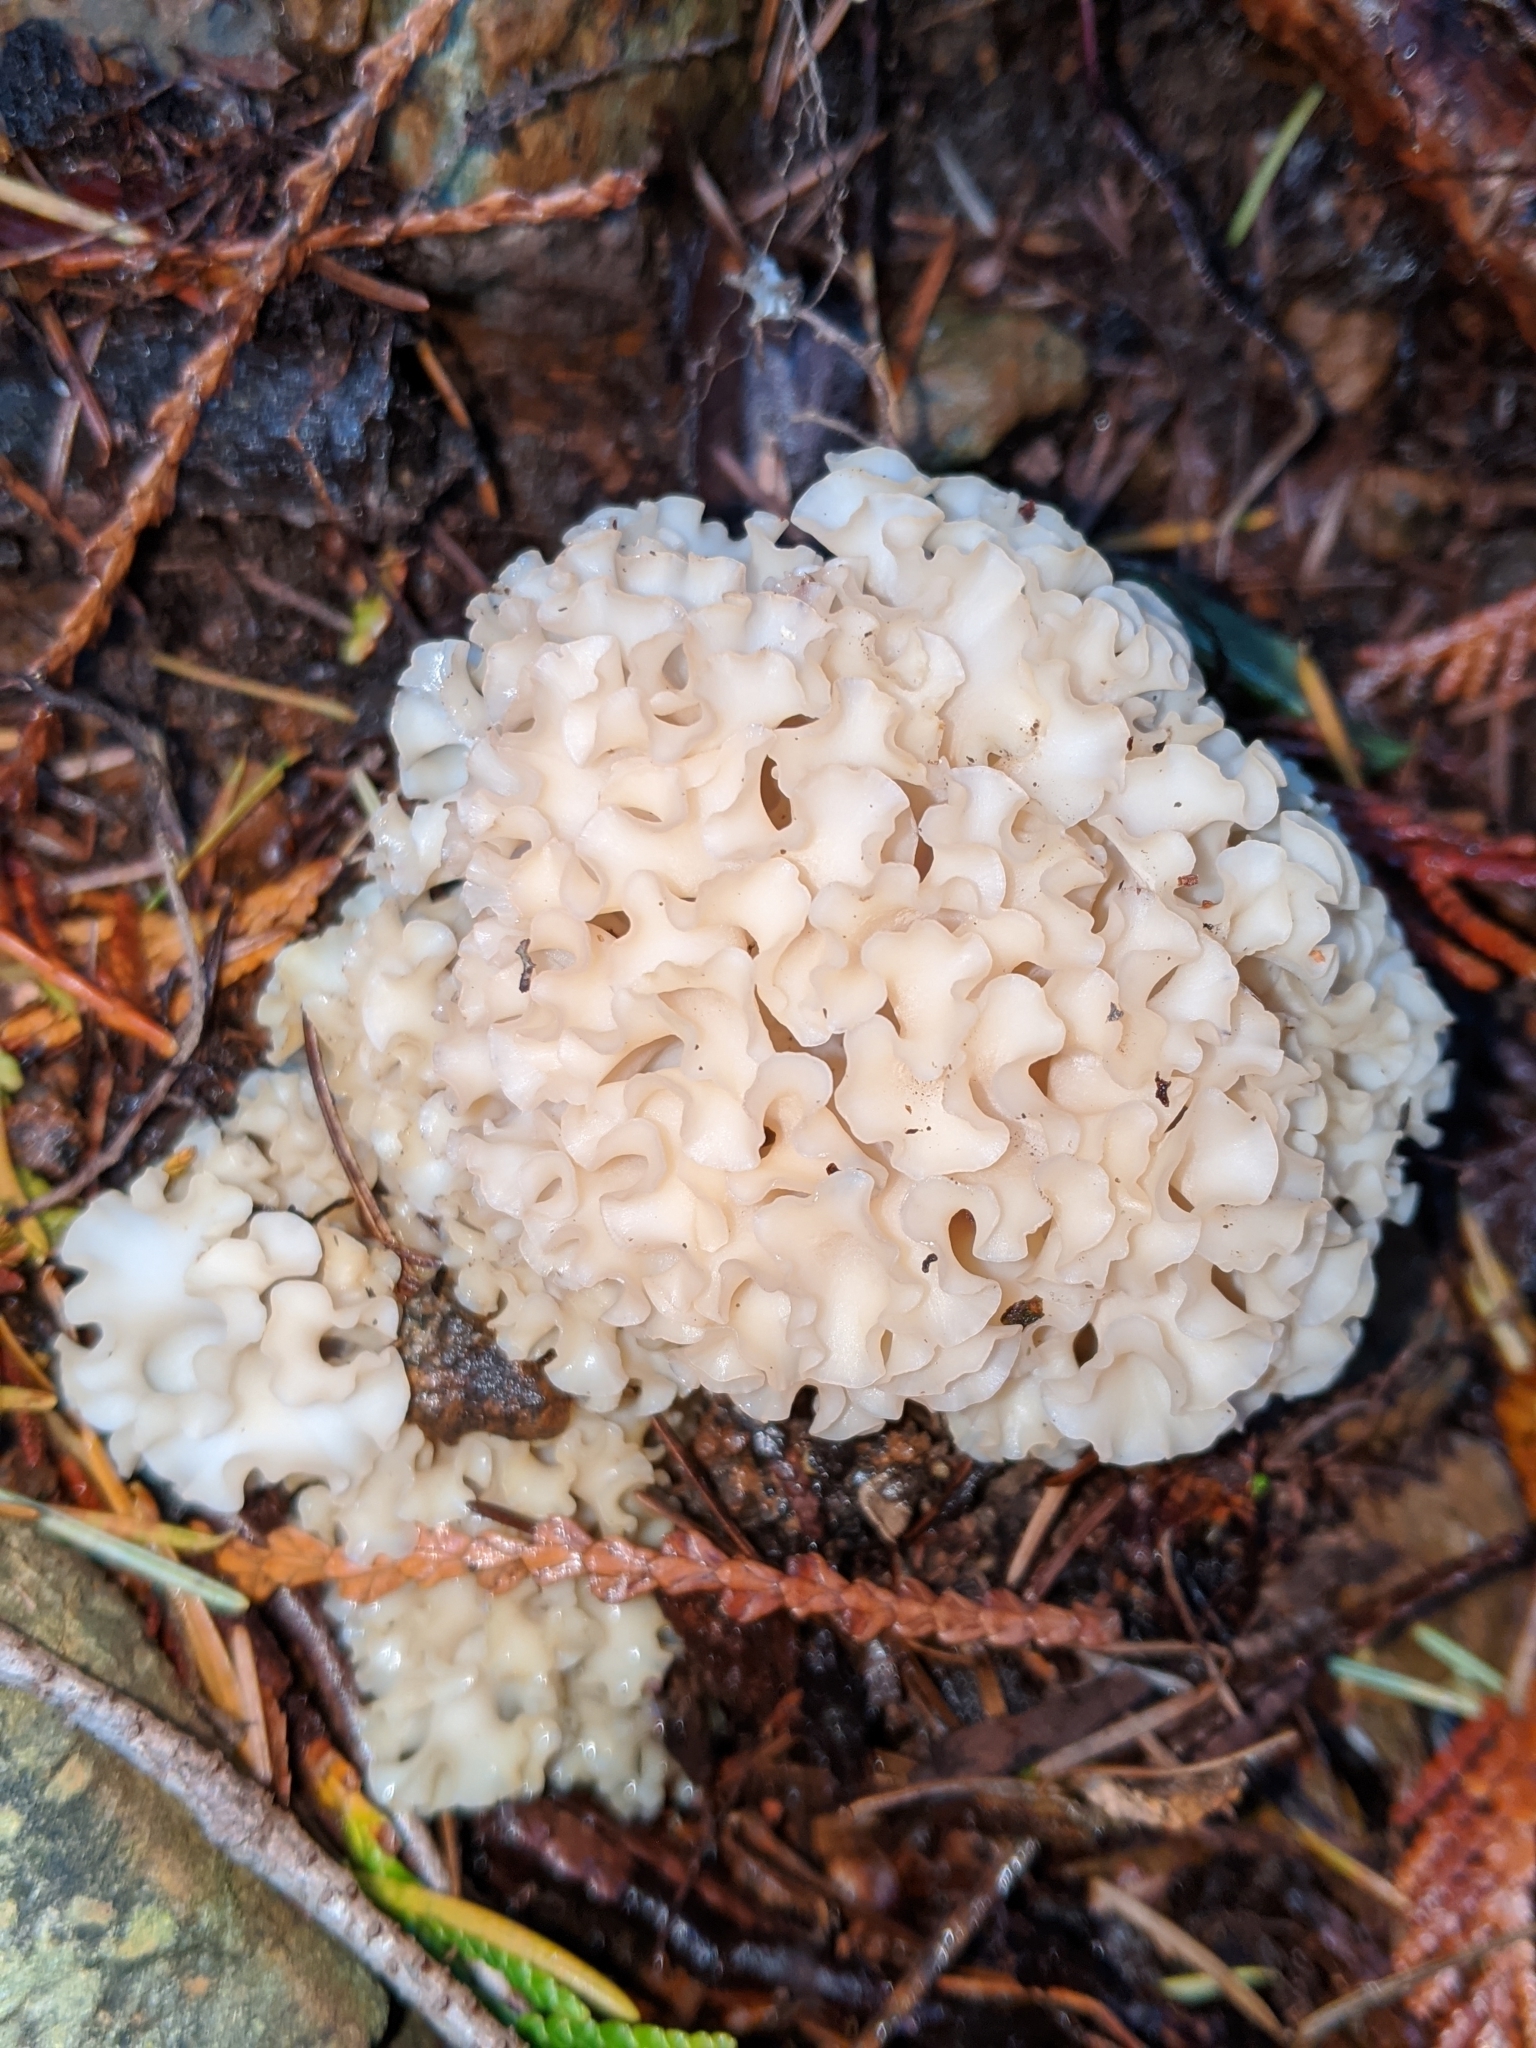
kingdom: Fungi
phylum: Basidiomycota
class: Agaricomycetes
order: Polyporales
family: Sparassidaceae
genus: Sparassis
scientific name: Sparassis radicata
